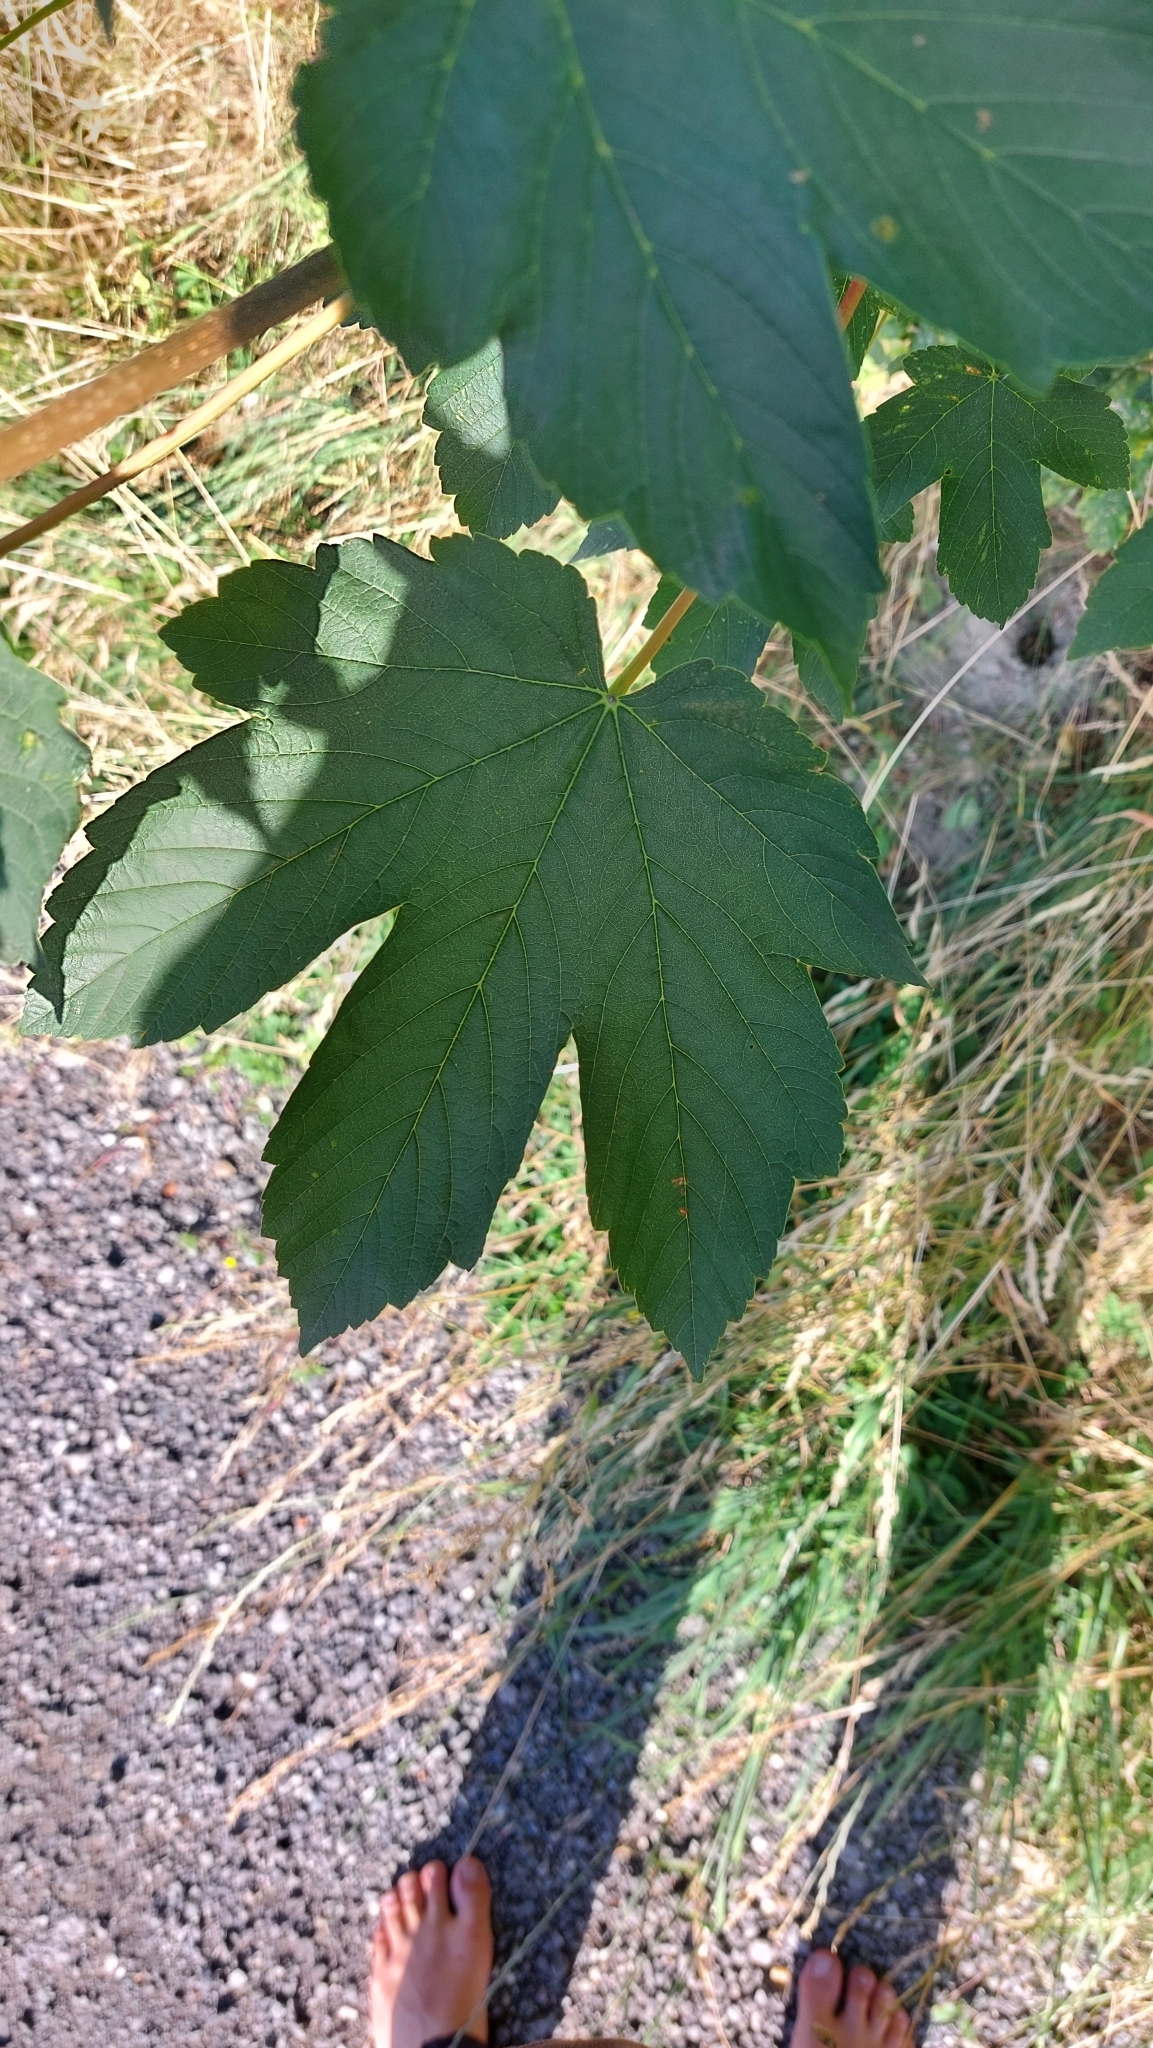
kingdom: Plantae
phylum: Tracheophyta
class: Magnoliopsida
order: Sapindales
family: Sapindaceae
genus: Acer
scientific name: Acer pseudoplatanus
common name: Sycamore
